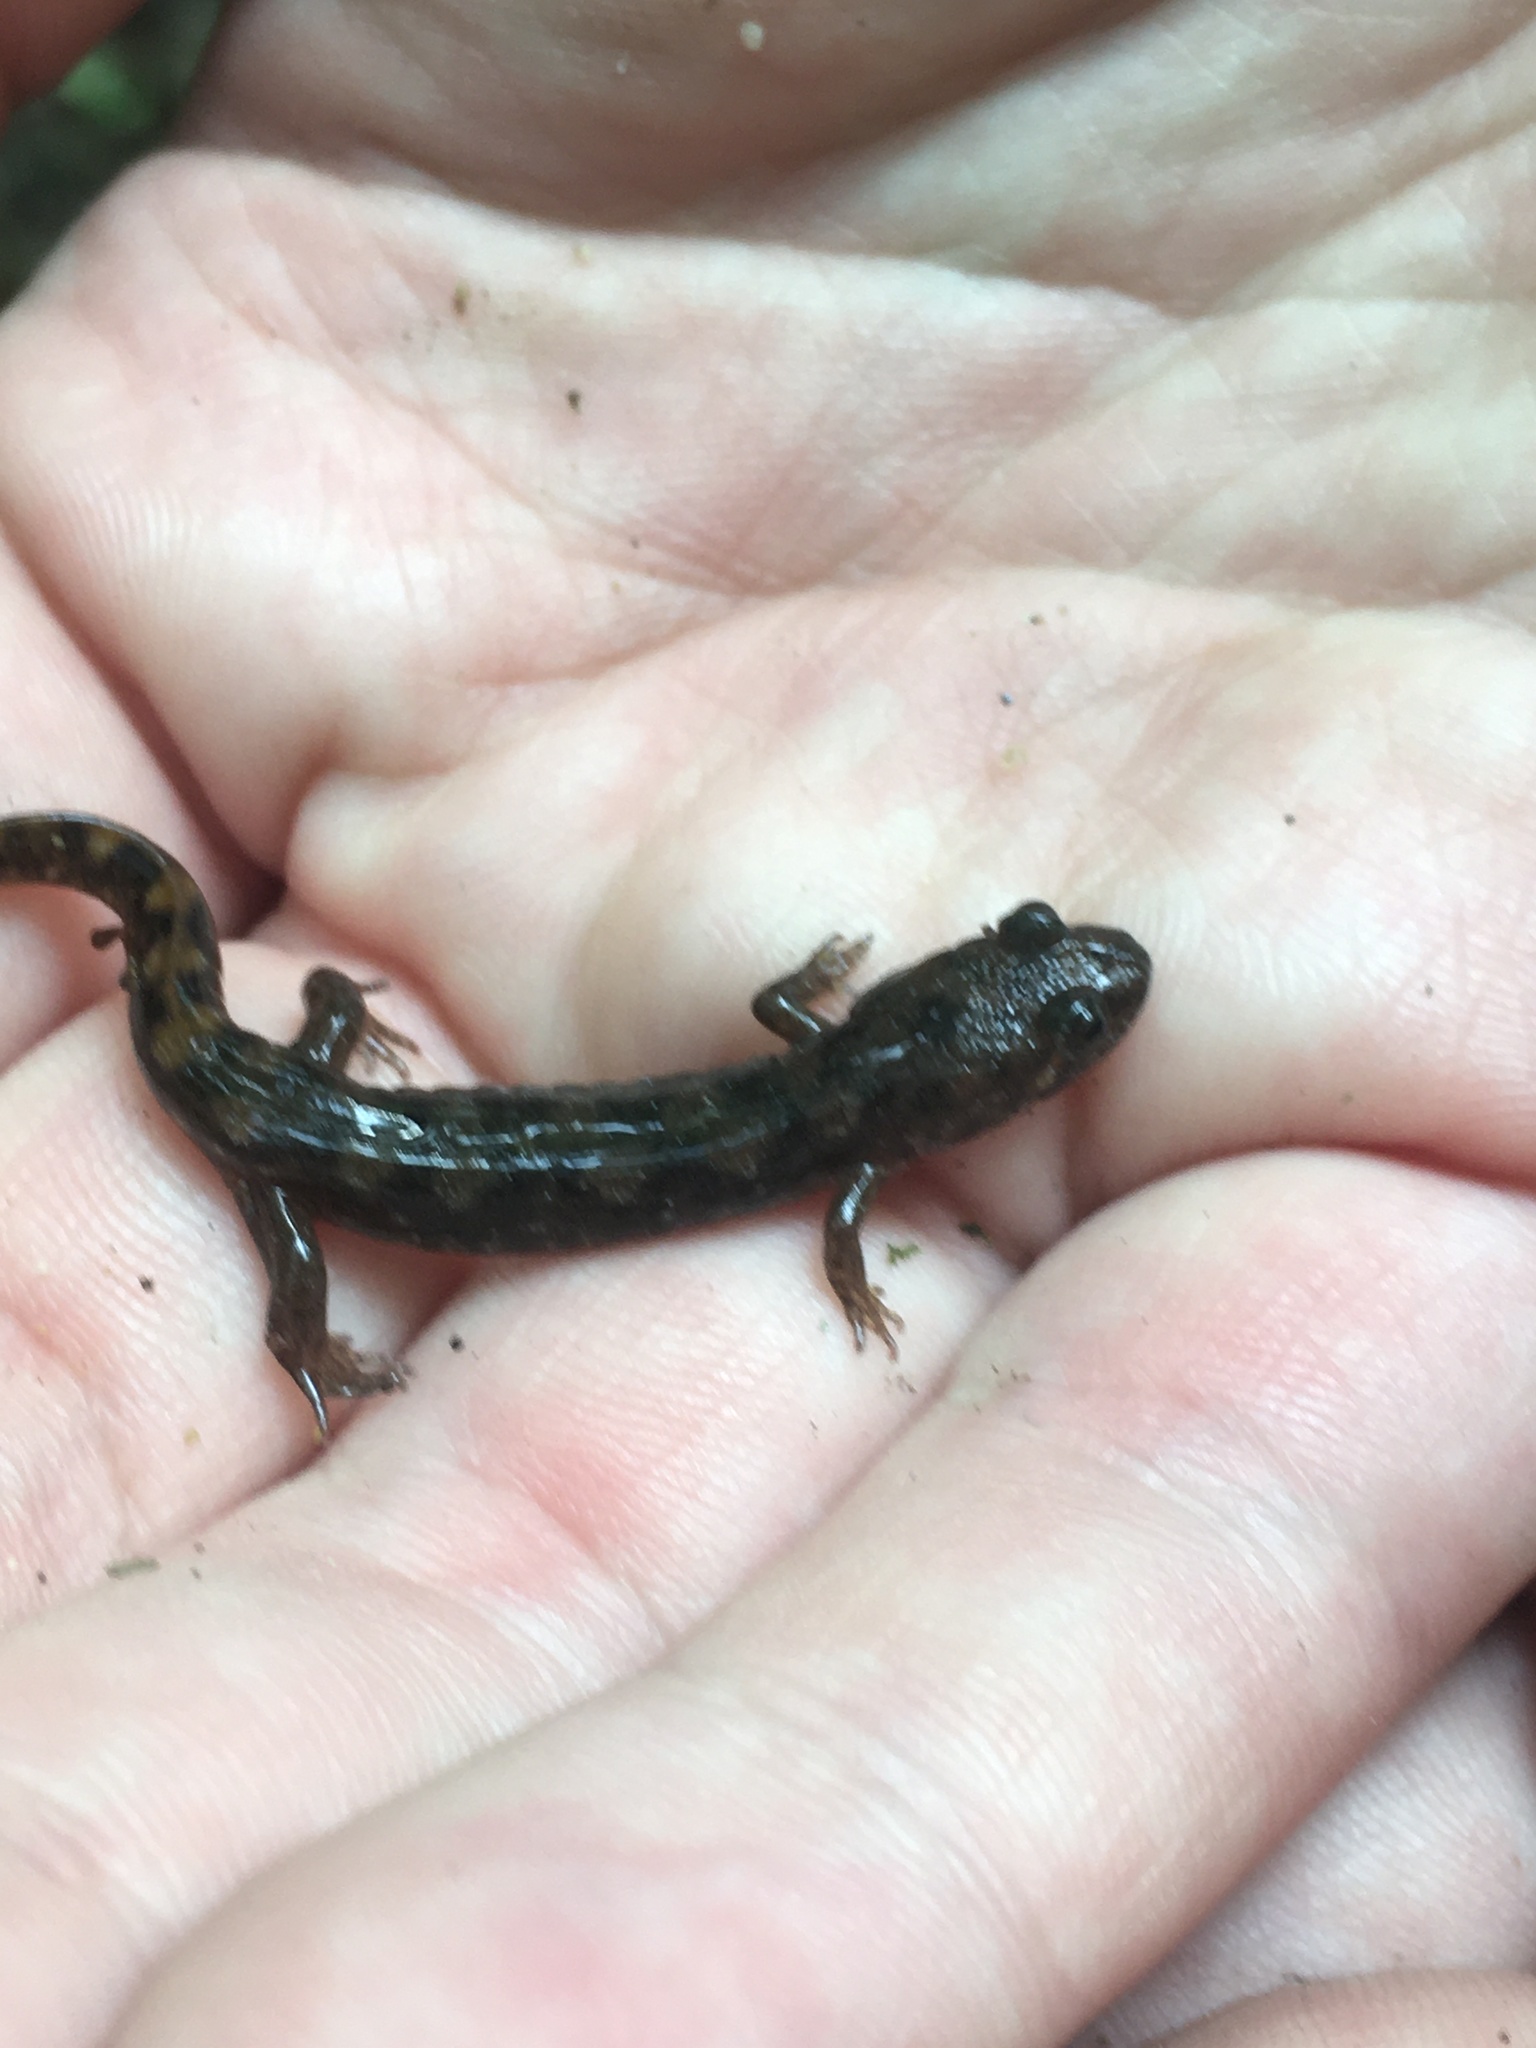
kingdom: Animalia
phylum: Chordata
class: Amphibia
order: Caudata
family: Plethodontidae
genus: Desmognathus
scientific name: Desmognathus monticola
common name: Seal salamander
